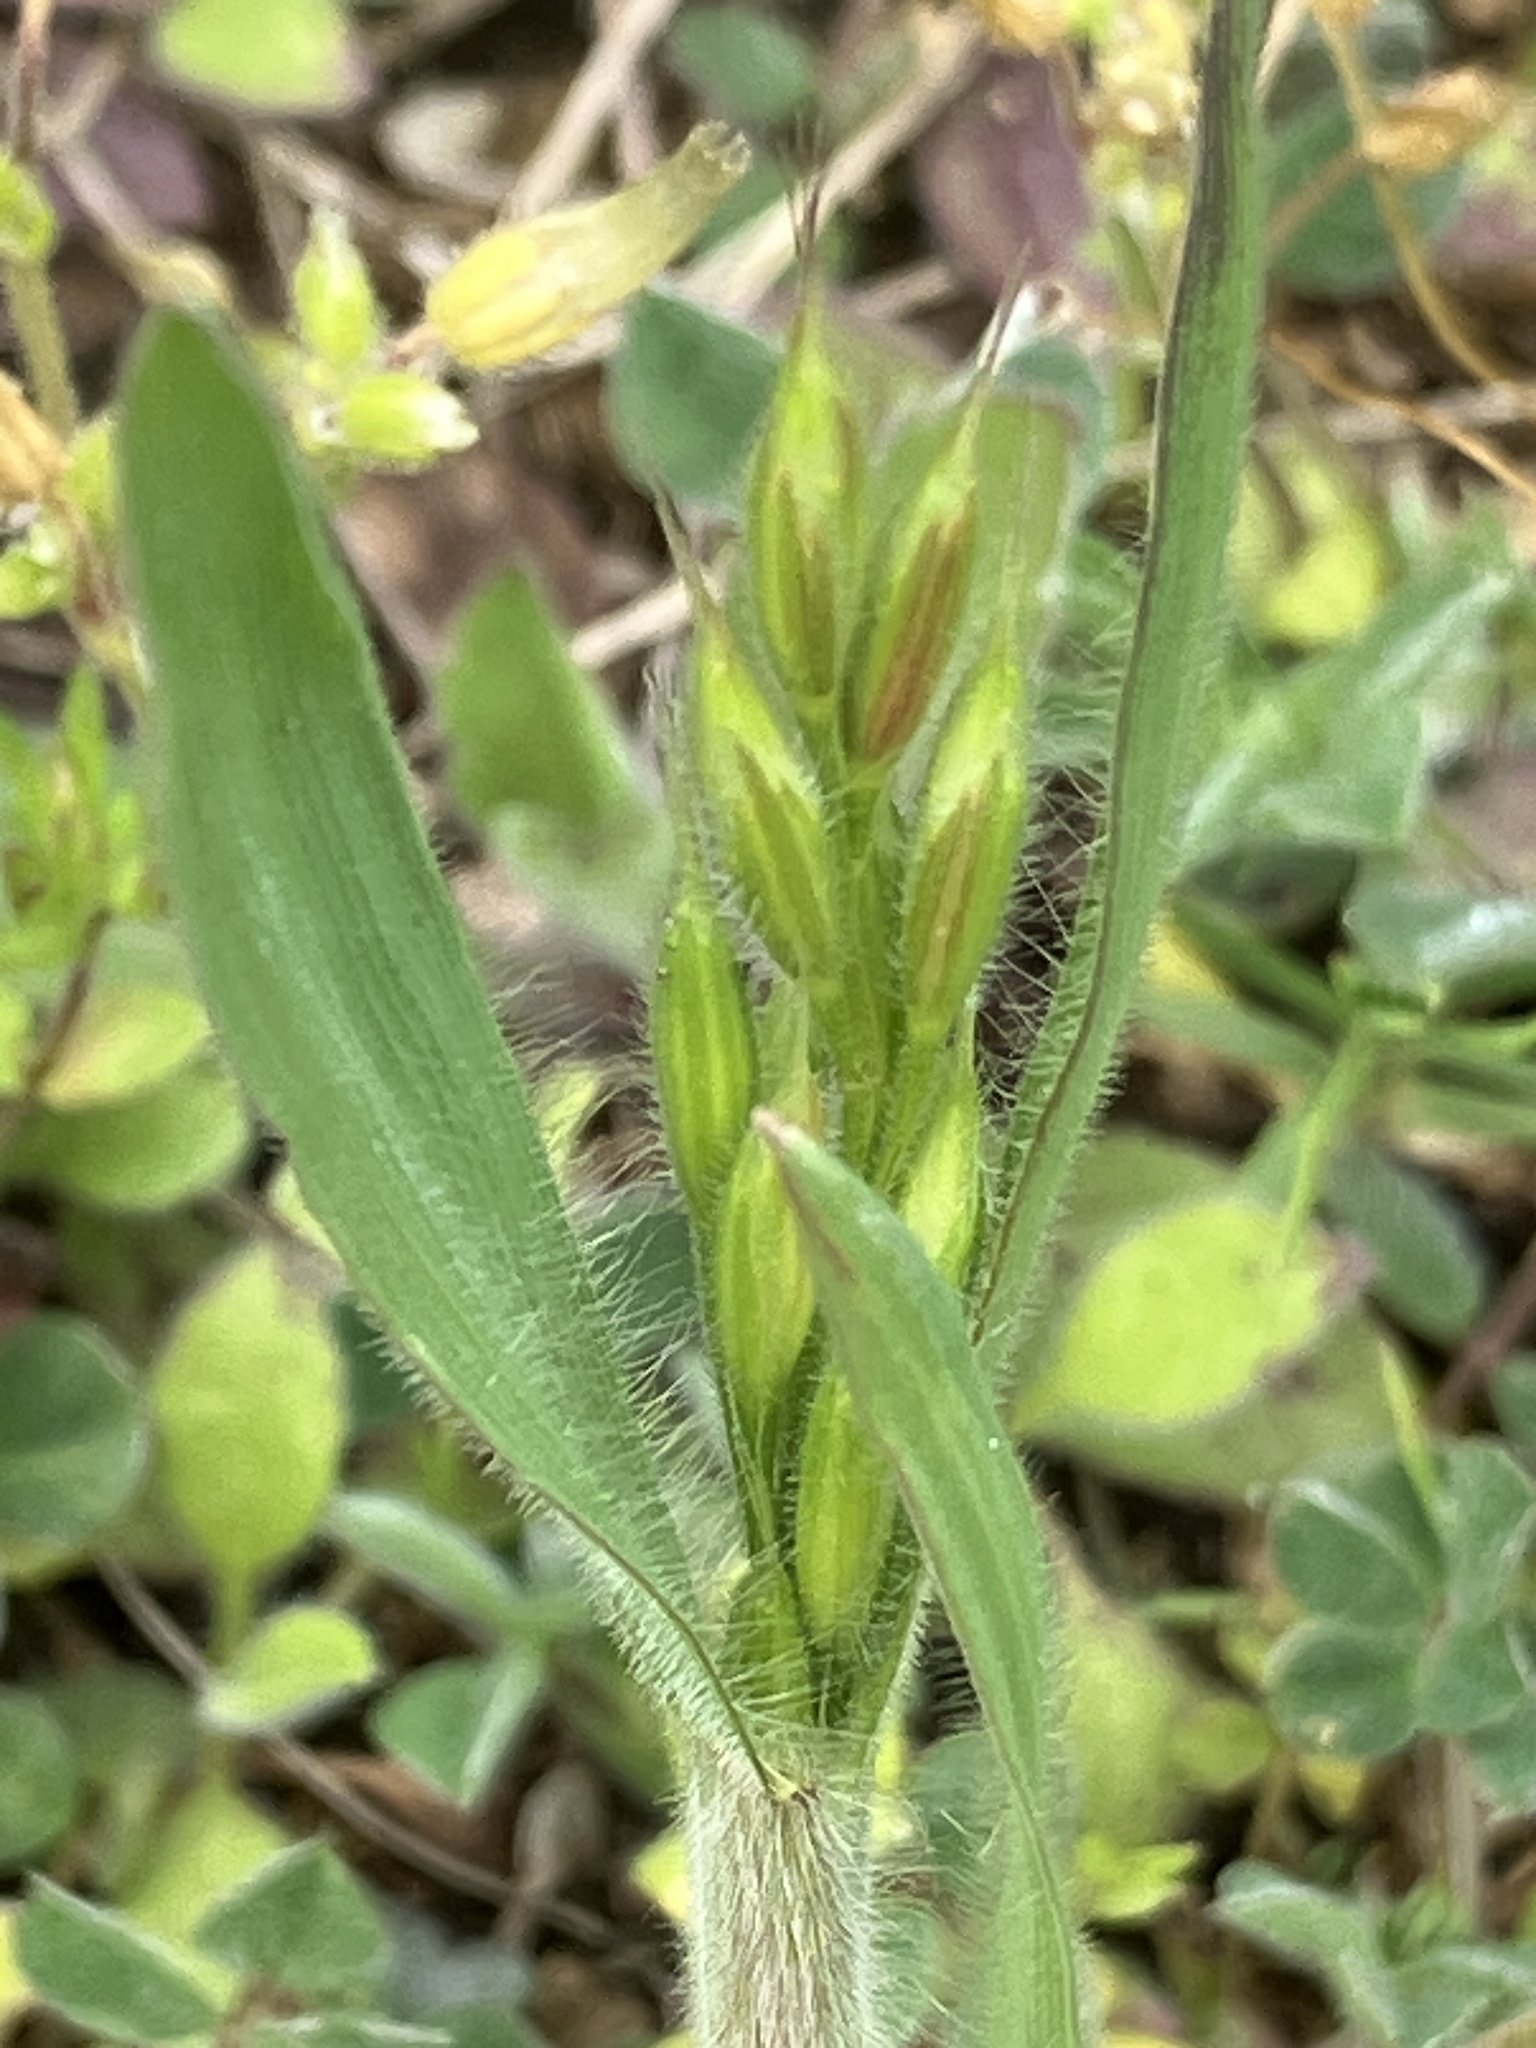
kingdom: Plantae
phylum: Tracheophyta
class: Liliopsida
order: Poales
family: Poaceae
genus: Bromus
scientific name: Bromus hordeaceus
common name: Soft brome
